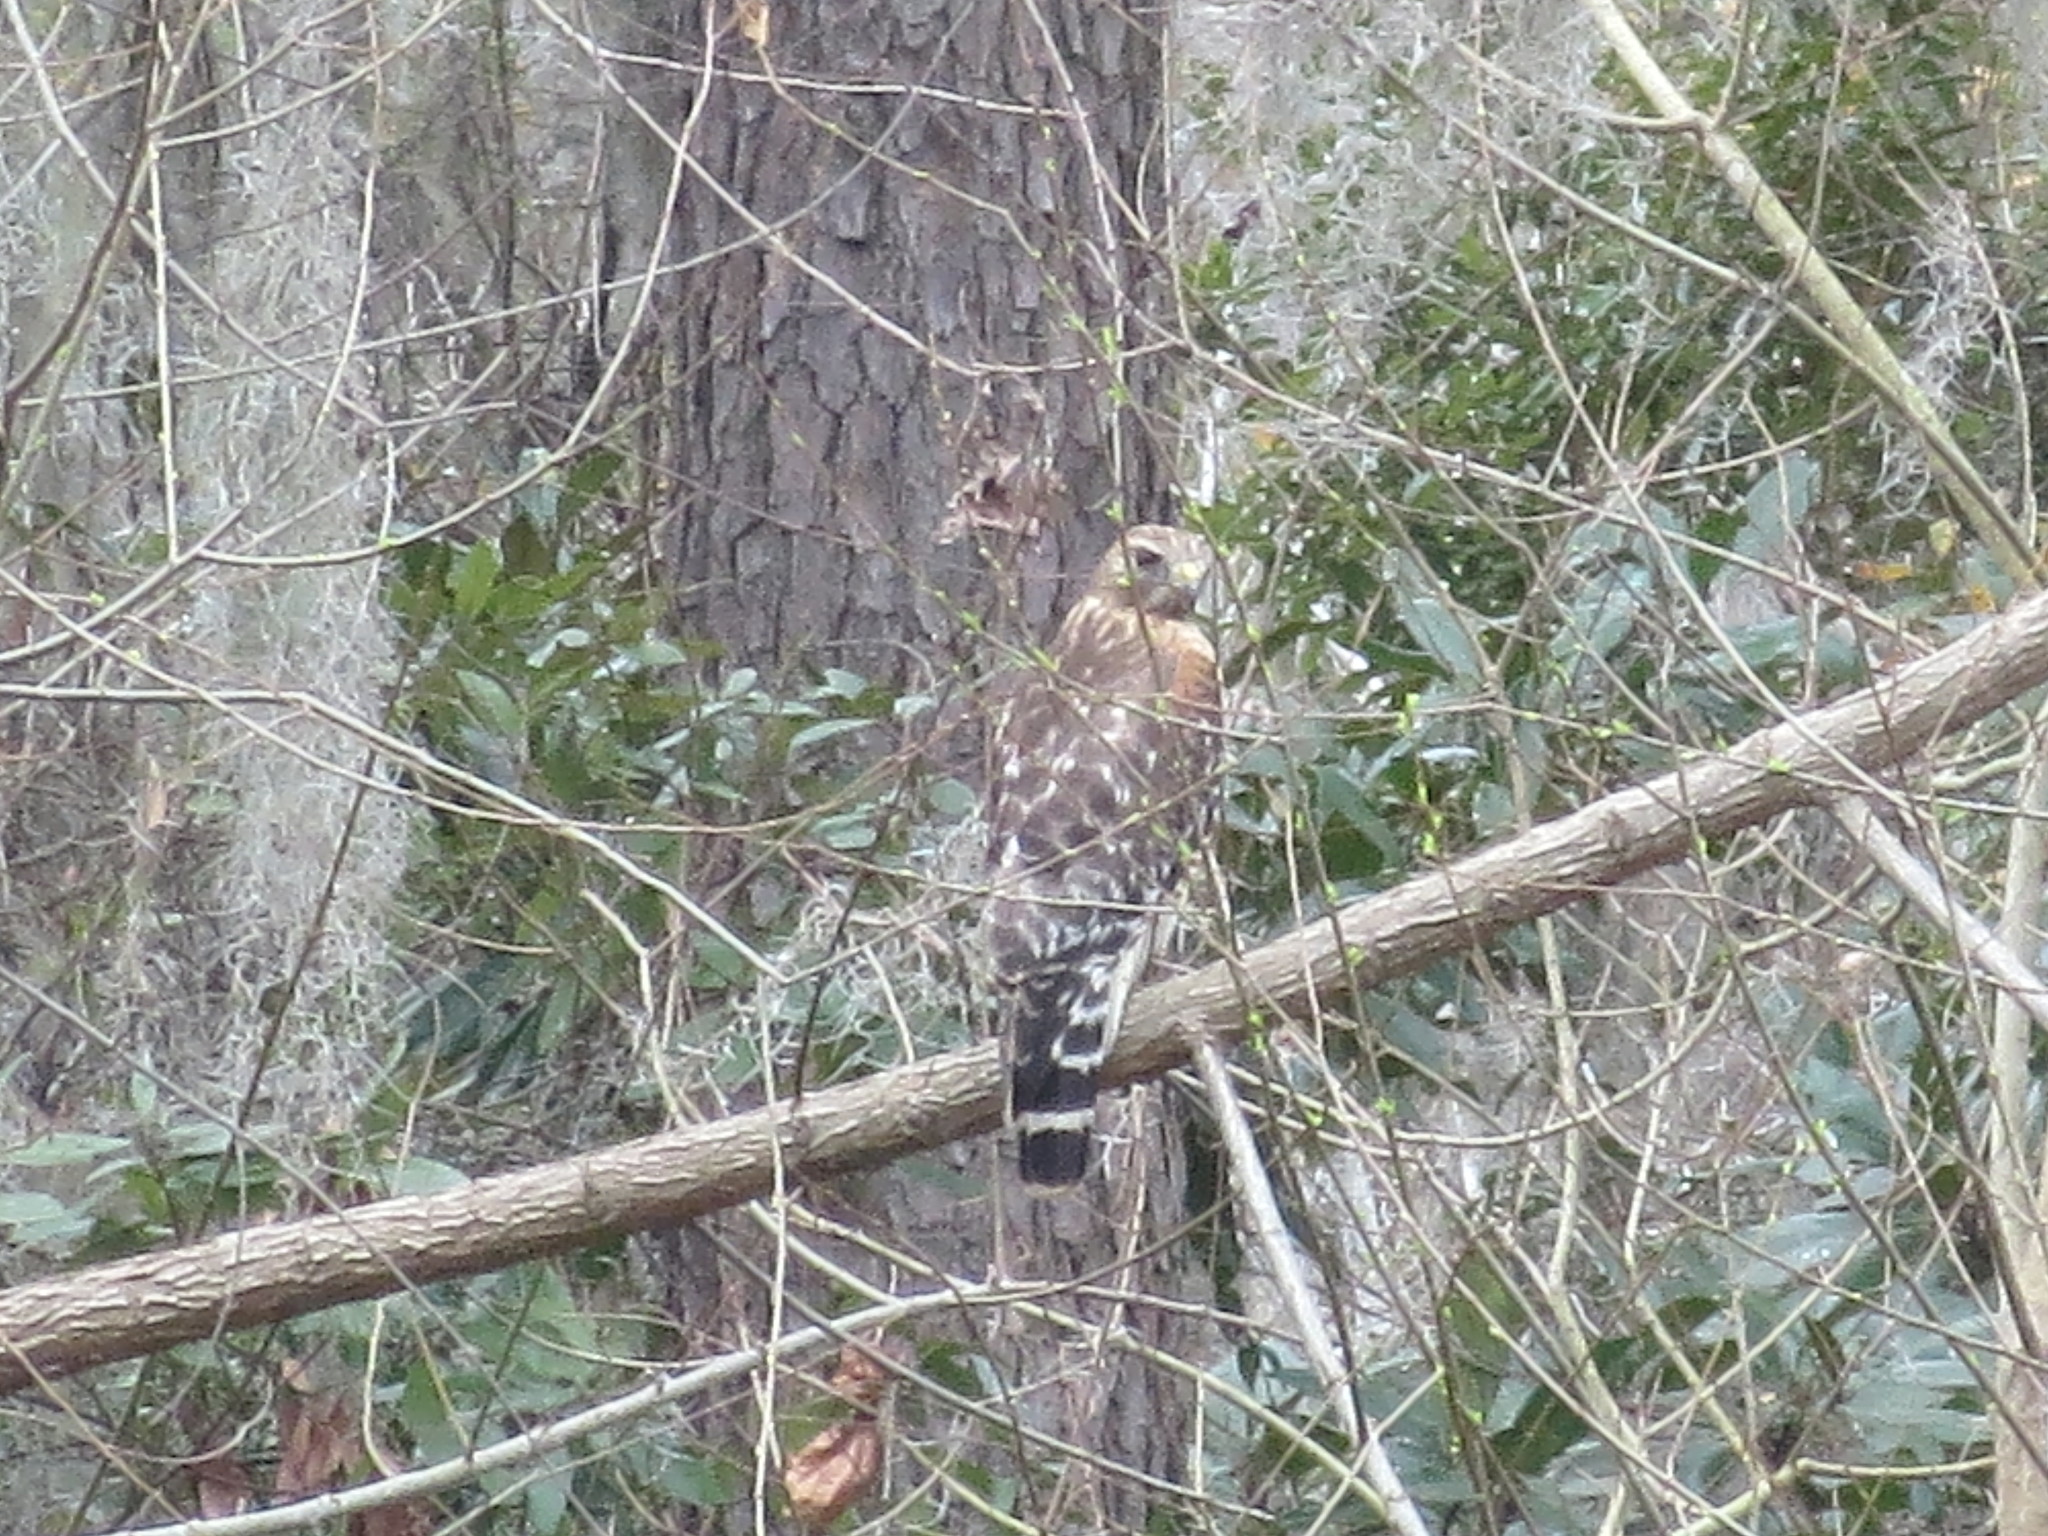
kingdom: Animalia
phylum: Chordata
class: Aves
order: Accipitriformes
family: Accipitridae
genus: Buteo
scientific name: Buteo lineatus
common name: Red-shouldered hawk
